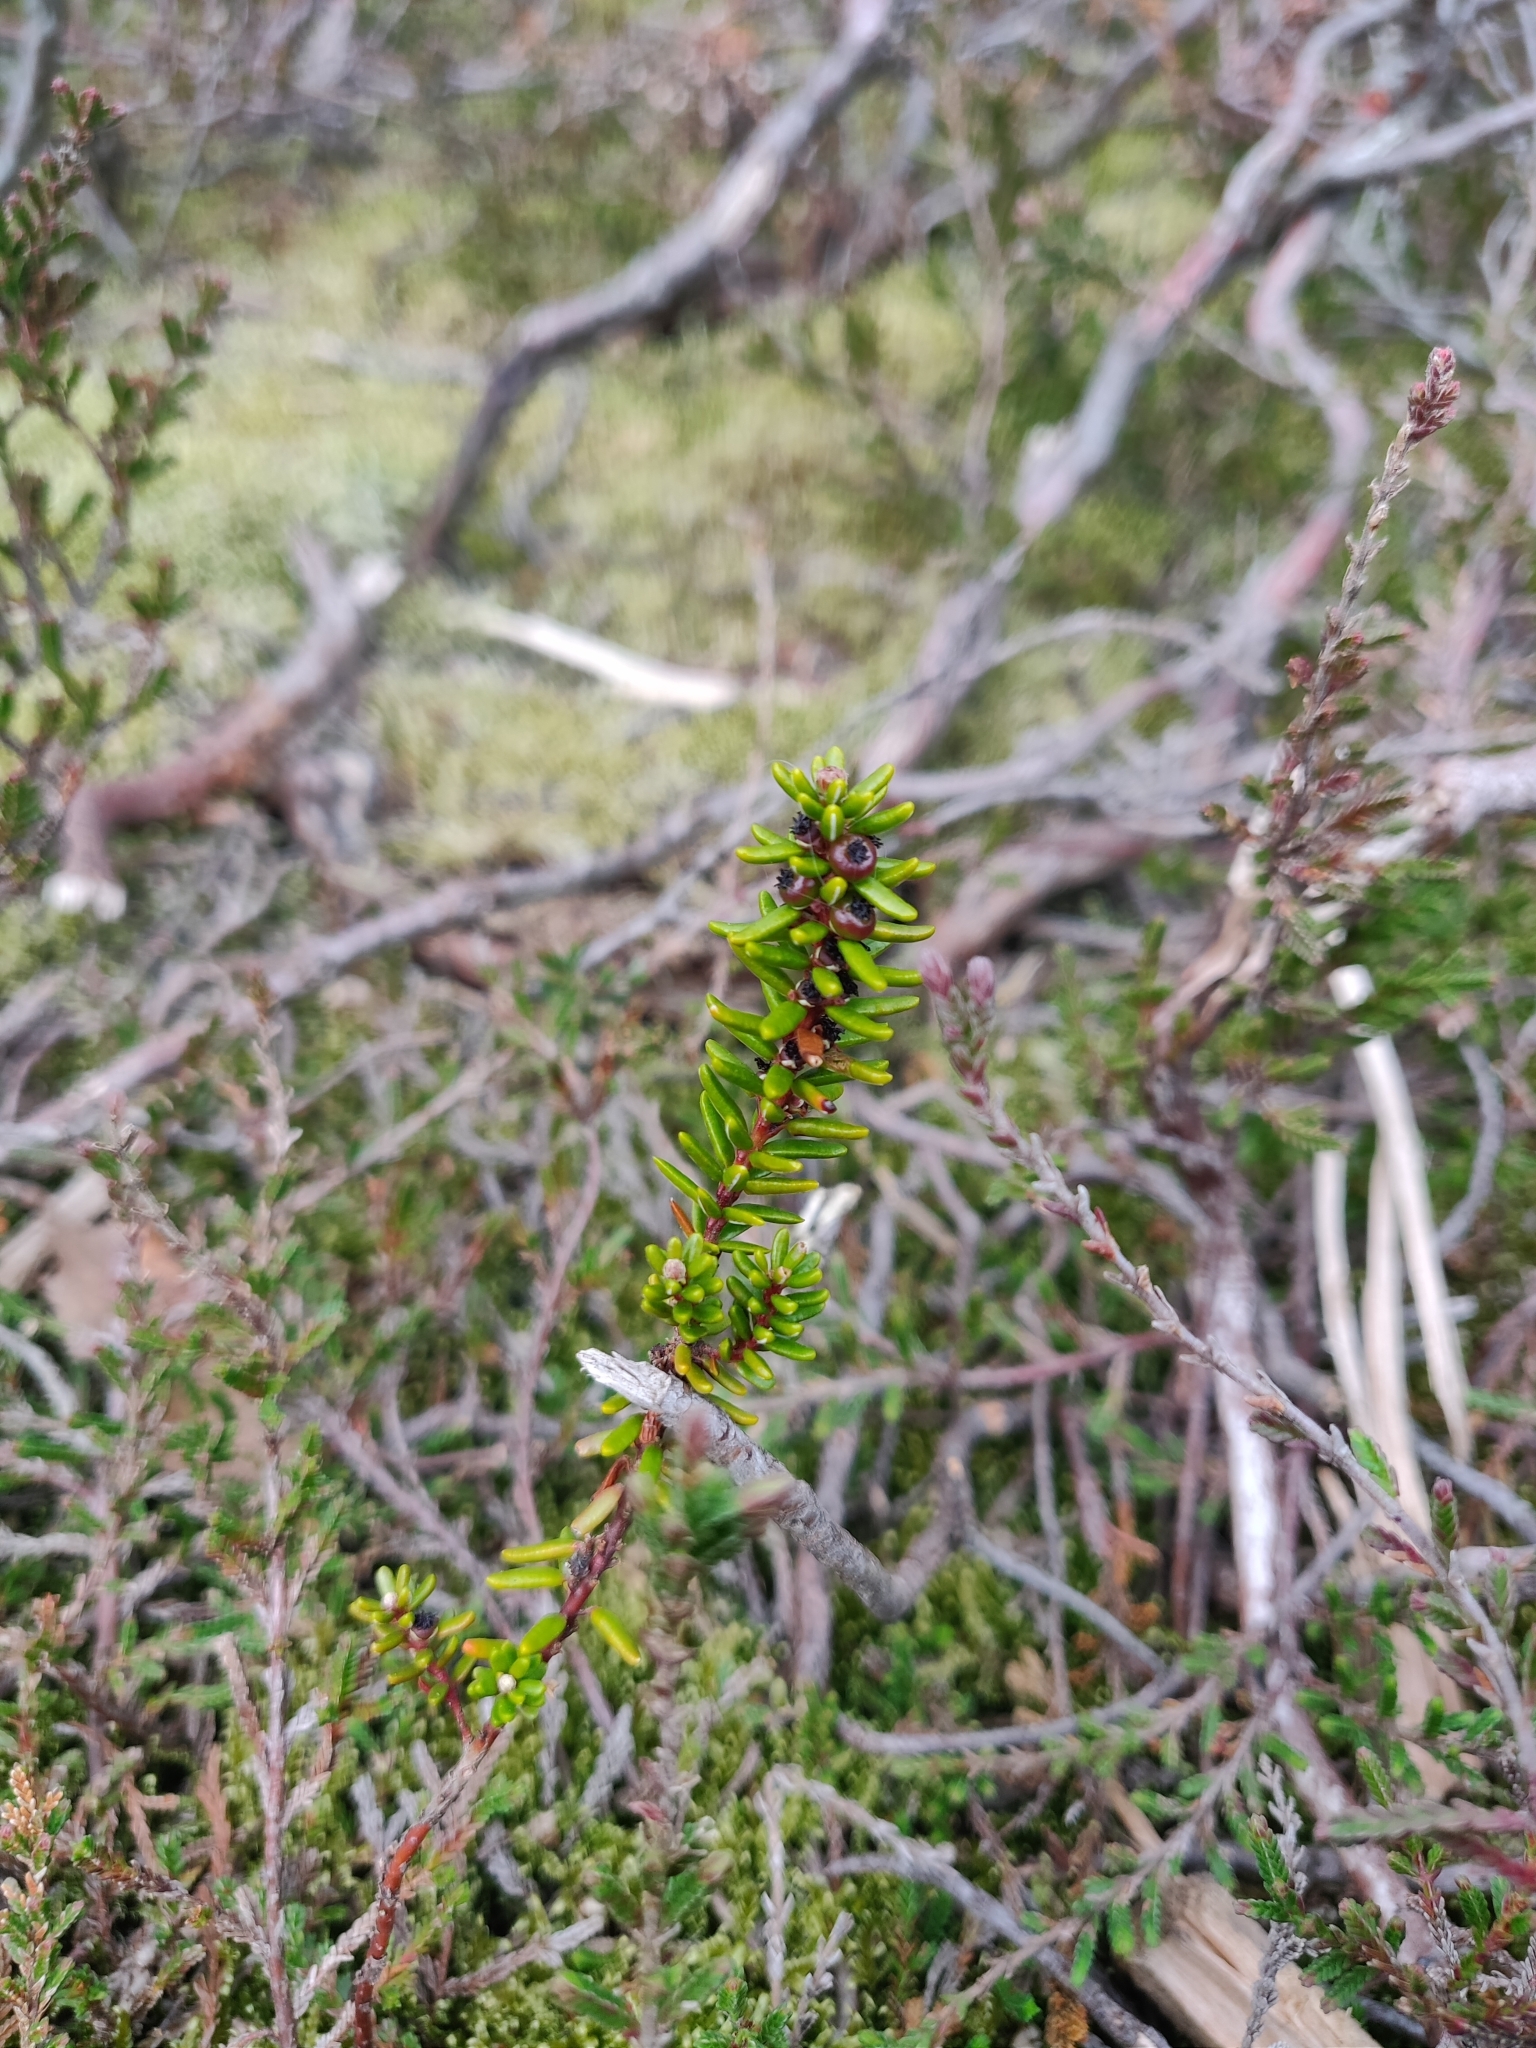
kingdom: Plantae
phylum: Tracheophyta
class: Magnoliopsida
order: Ericales
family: Ericaceae
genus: Empetrum
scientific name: Empetrum nigrum
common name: Black crowberry
